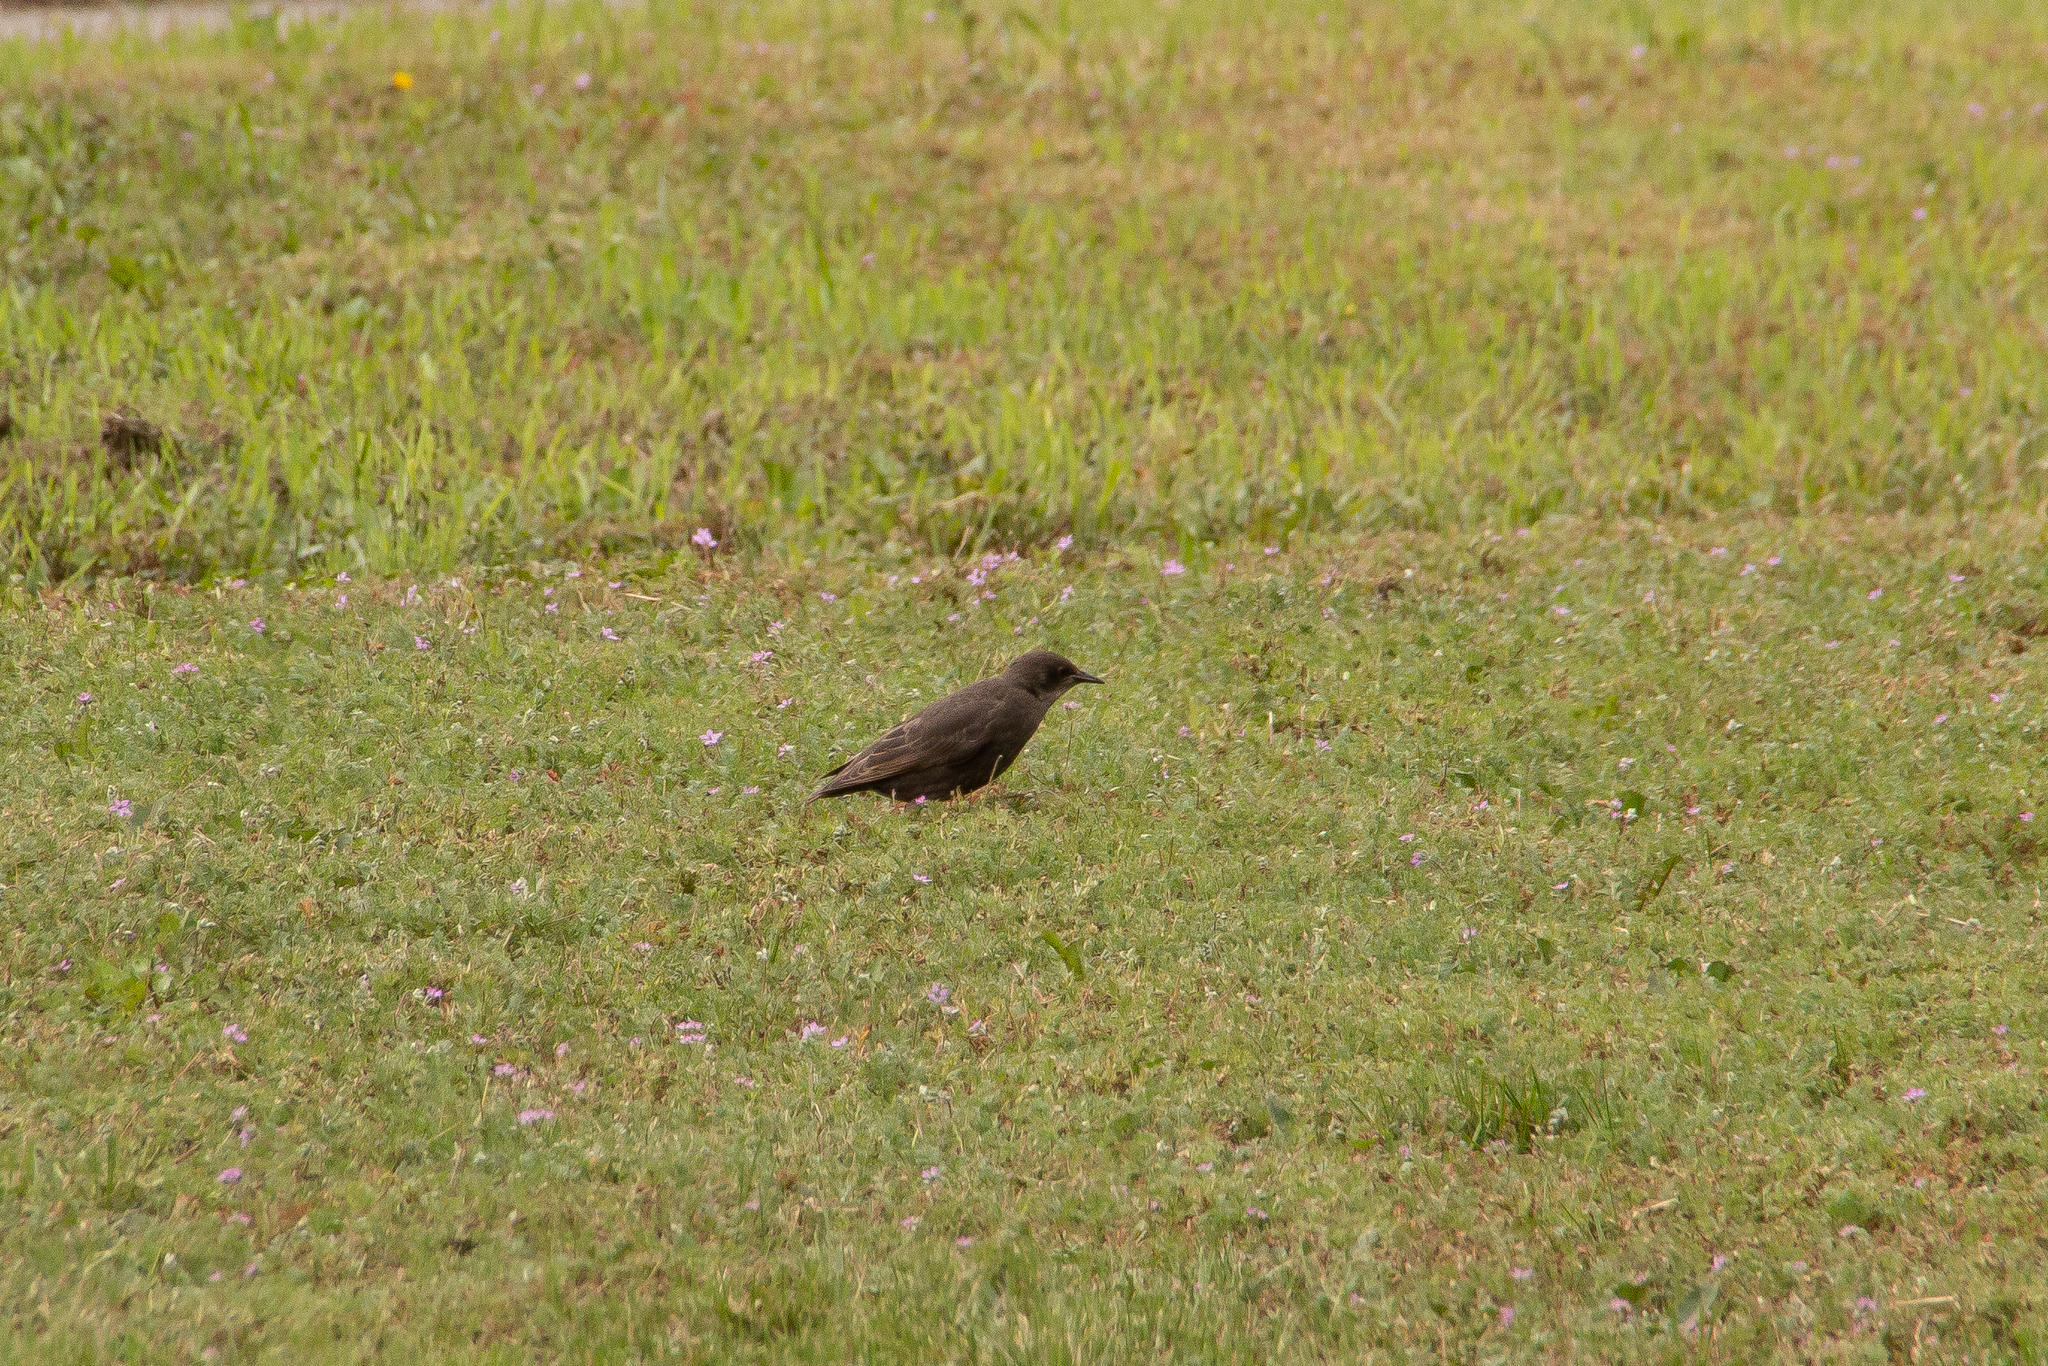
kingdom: Animalia
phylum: Chordata
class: Aves
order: Passeriformes
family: Sturnidae
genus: Sturnus
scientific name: Sturnus vulgaris
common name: Common starling
